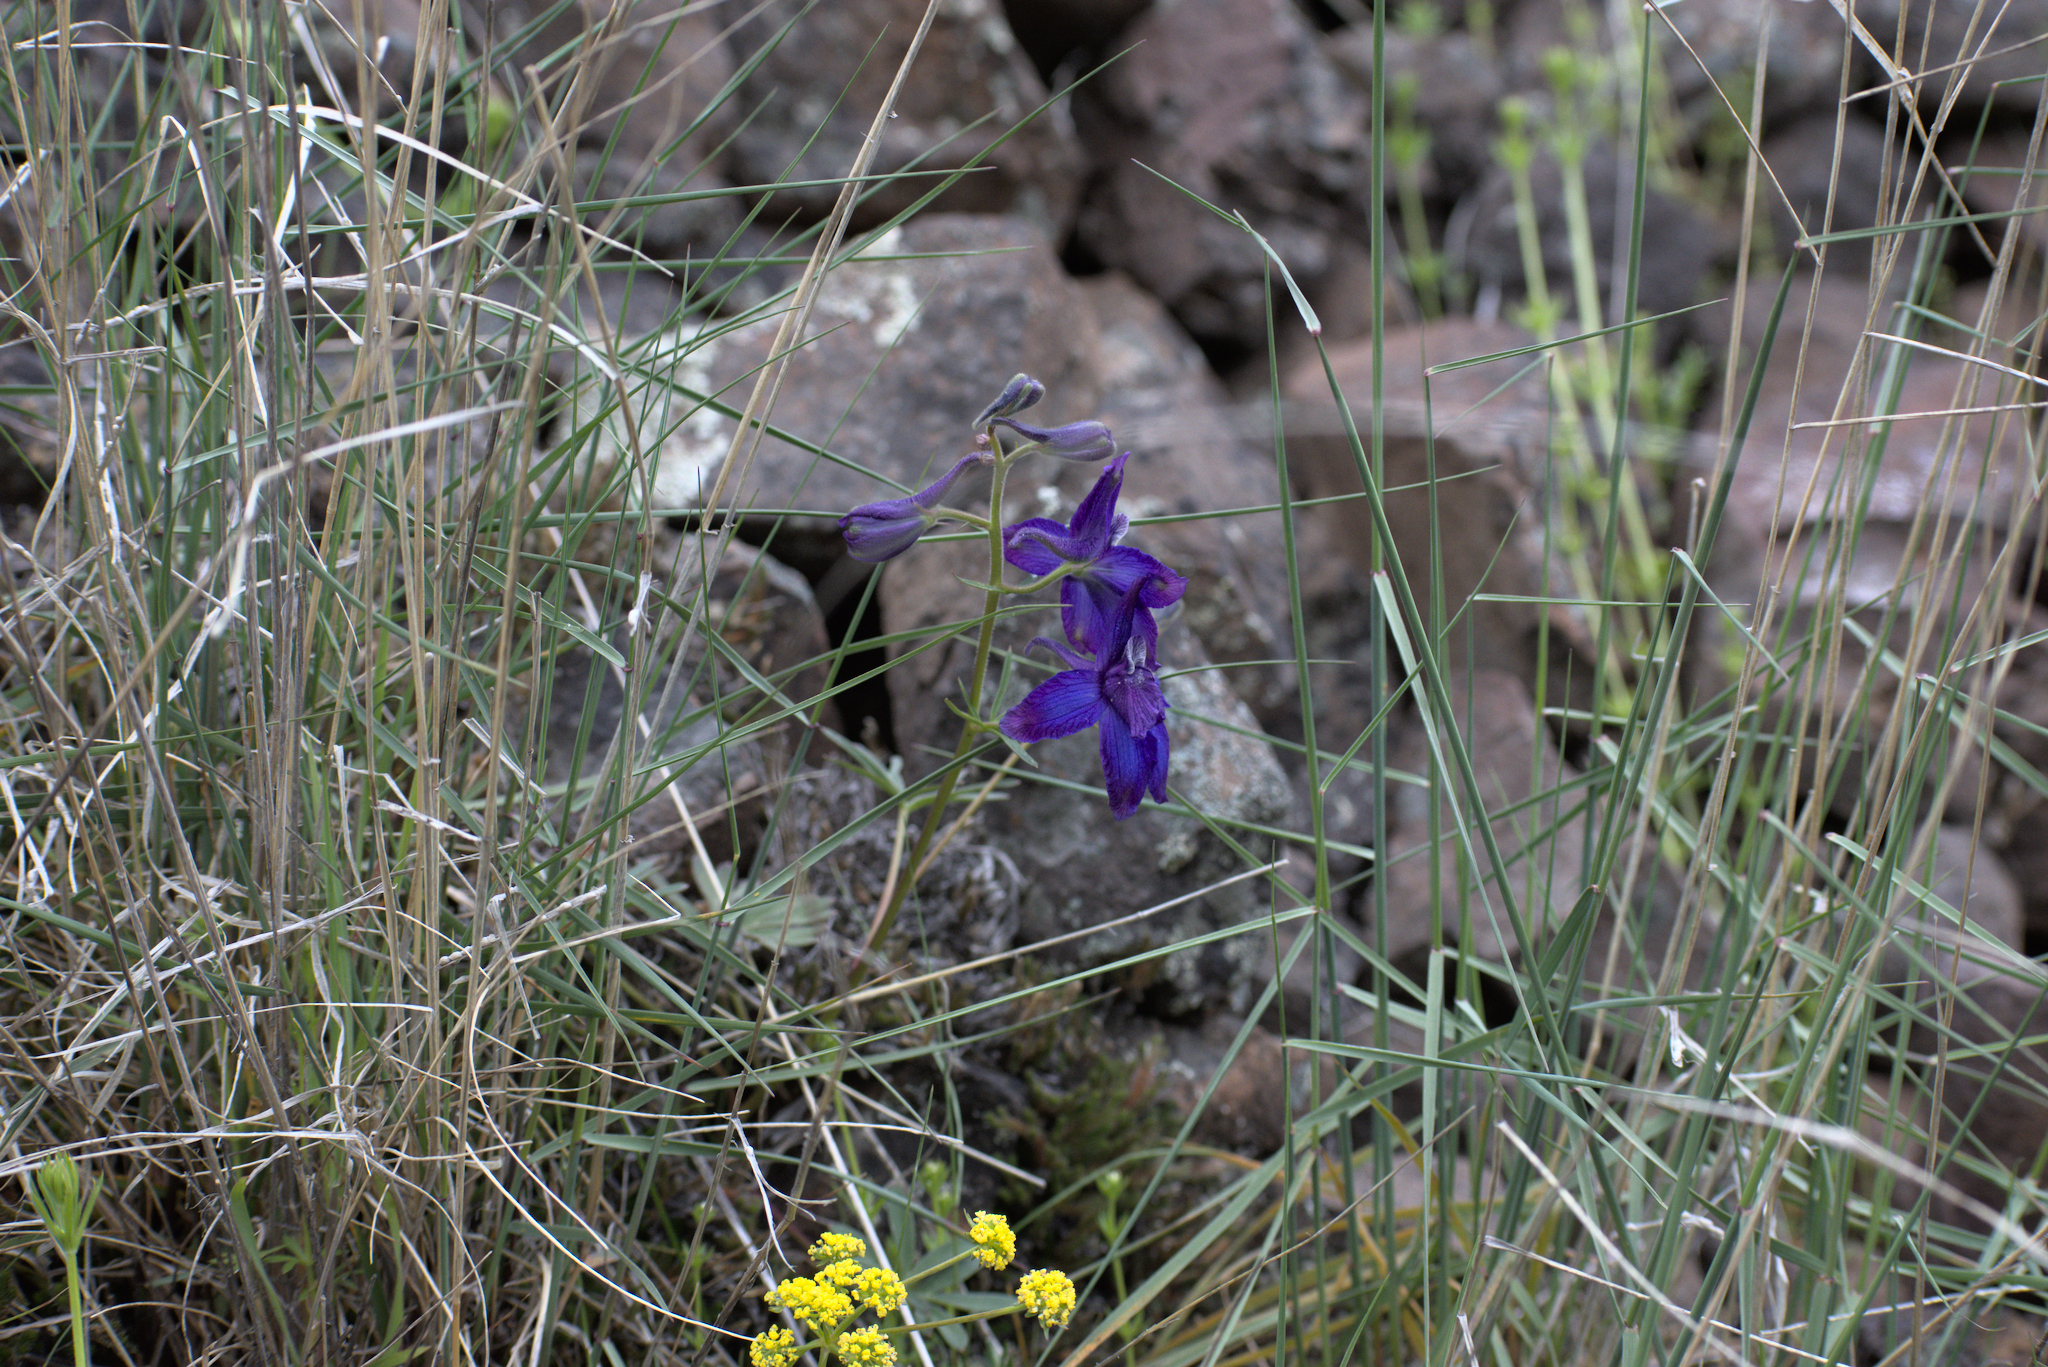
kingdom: Plantae
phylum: Tracheophyta
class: Magnoliopsida
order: Ranunculales
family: Ranunculaceae
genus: Delphinium
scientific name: Delphinium nuttallianum
